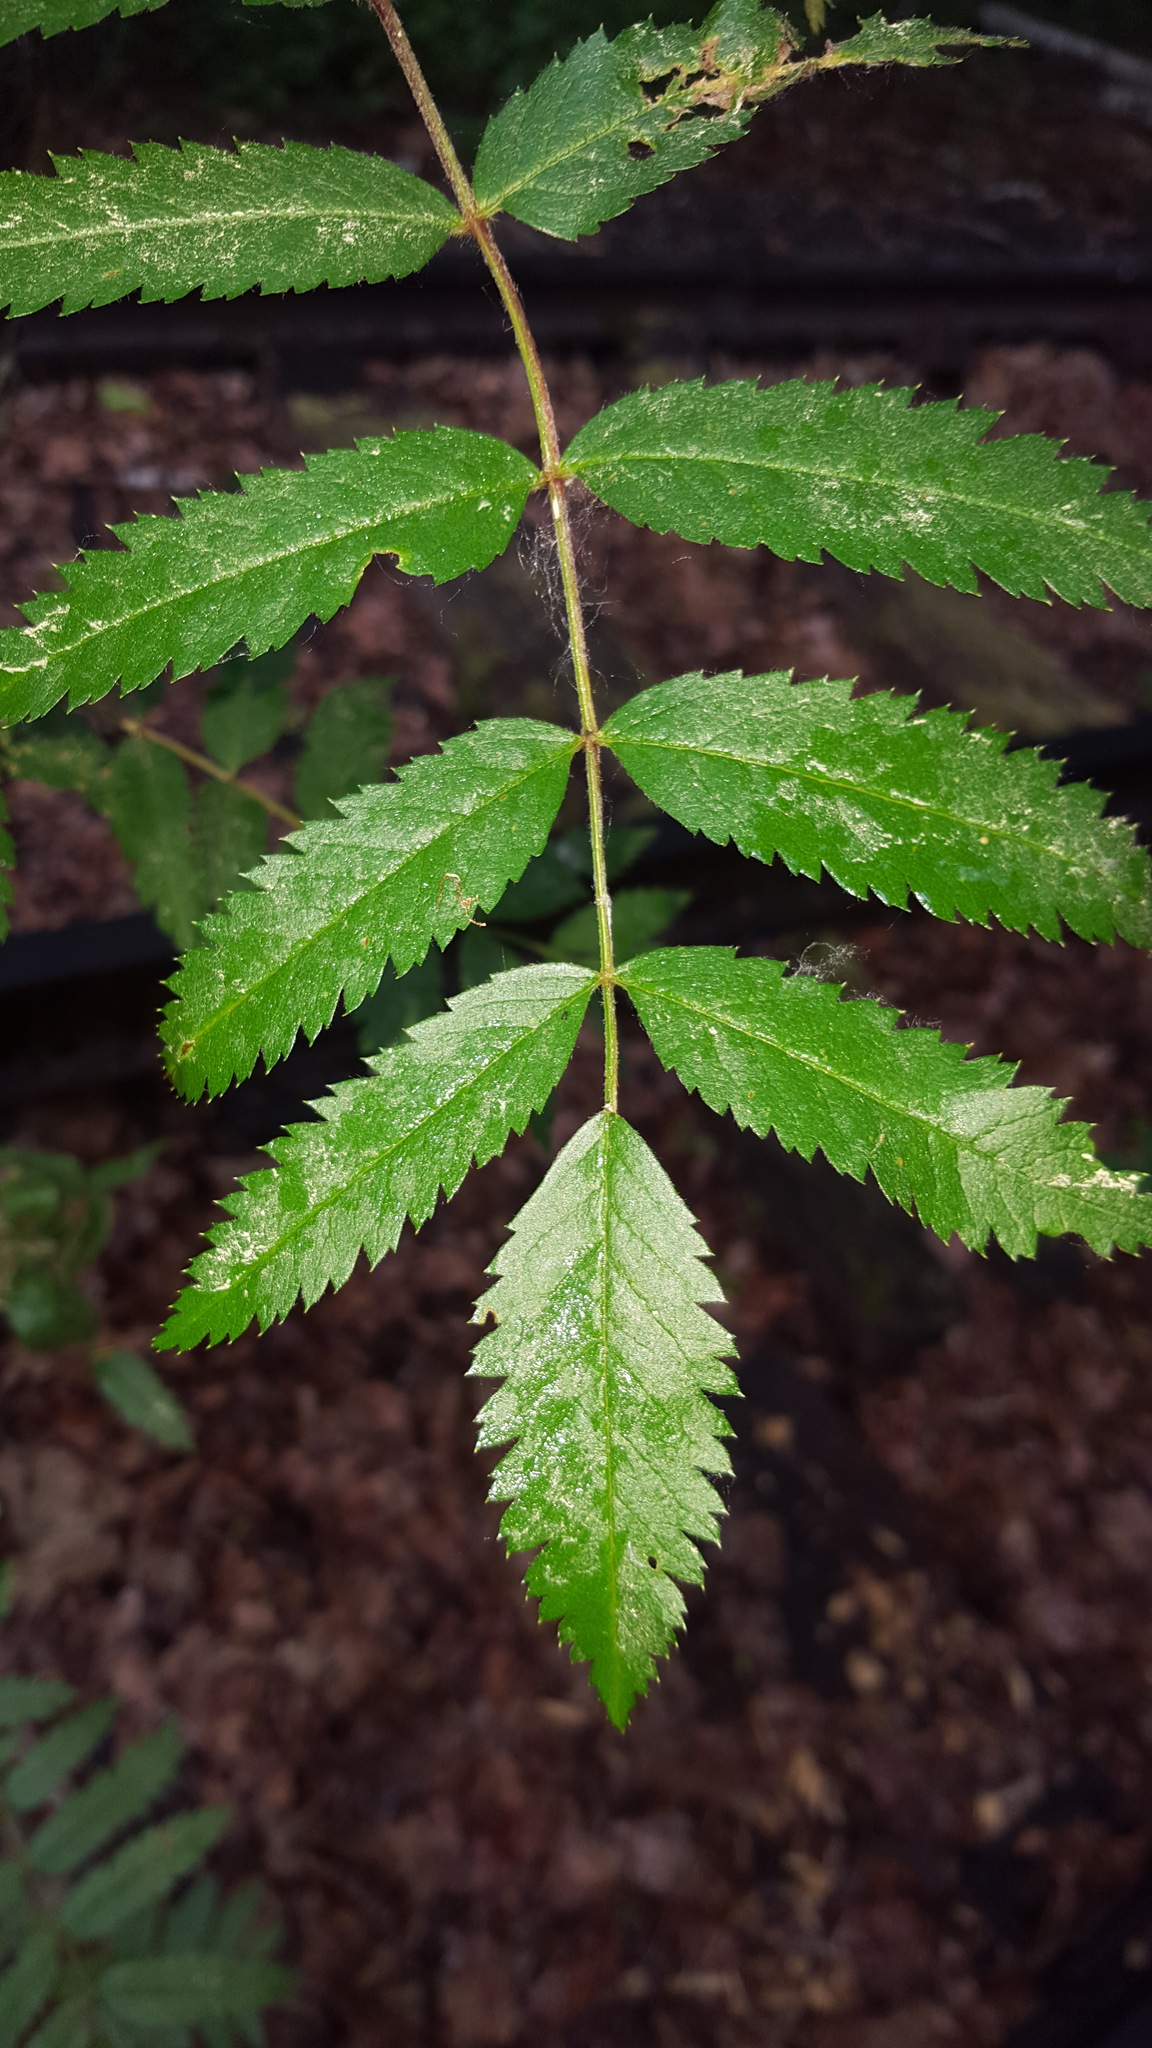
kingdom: Plantae
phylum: Tracheophyta
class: Magnoliopsida
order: Rosales
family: Rosaceae
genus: Sorbus
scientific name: Sorbus aucuparia
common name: Rowan
